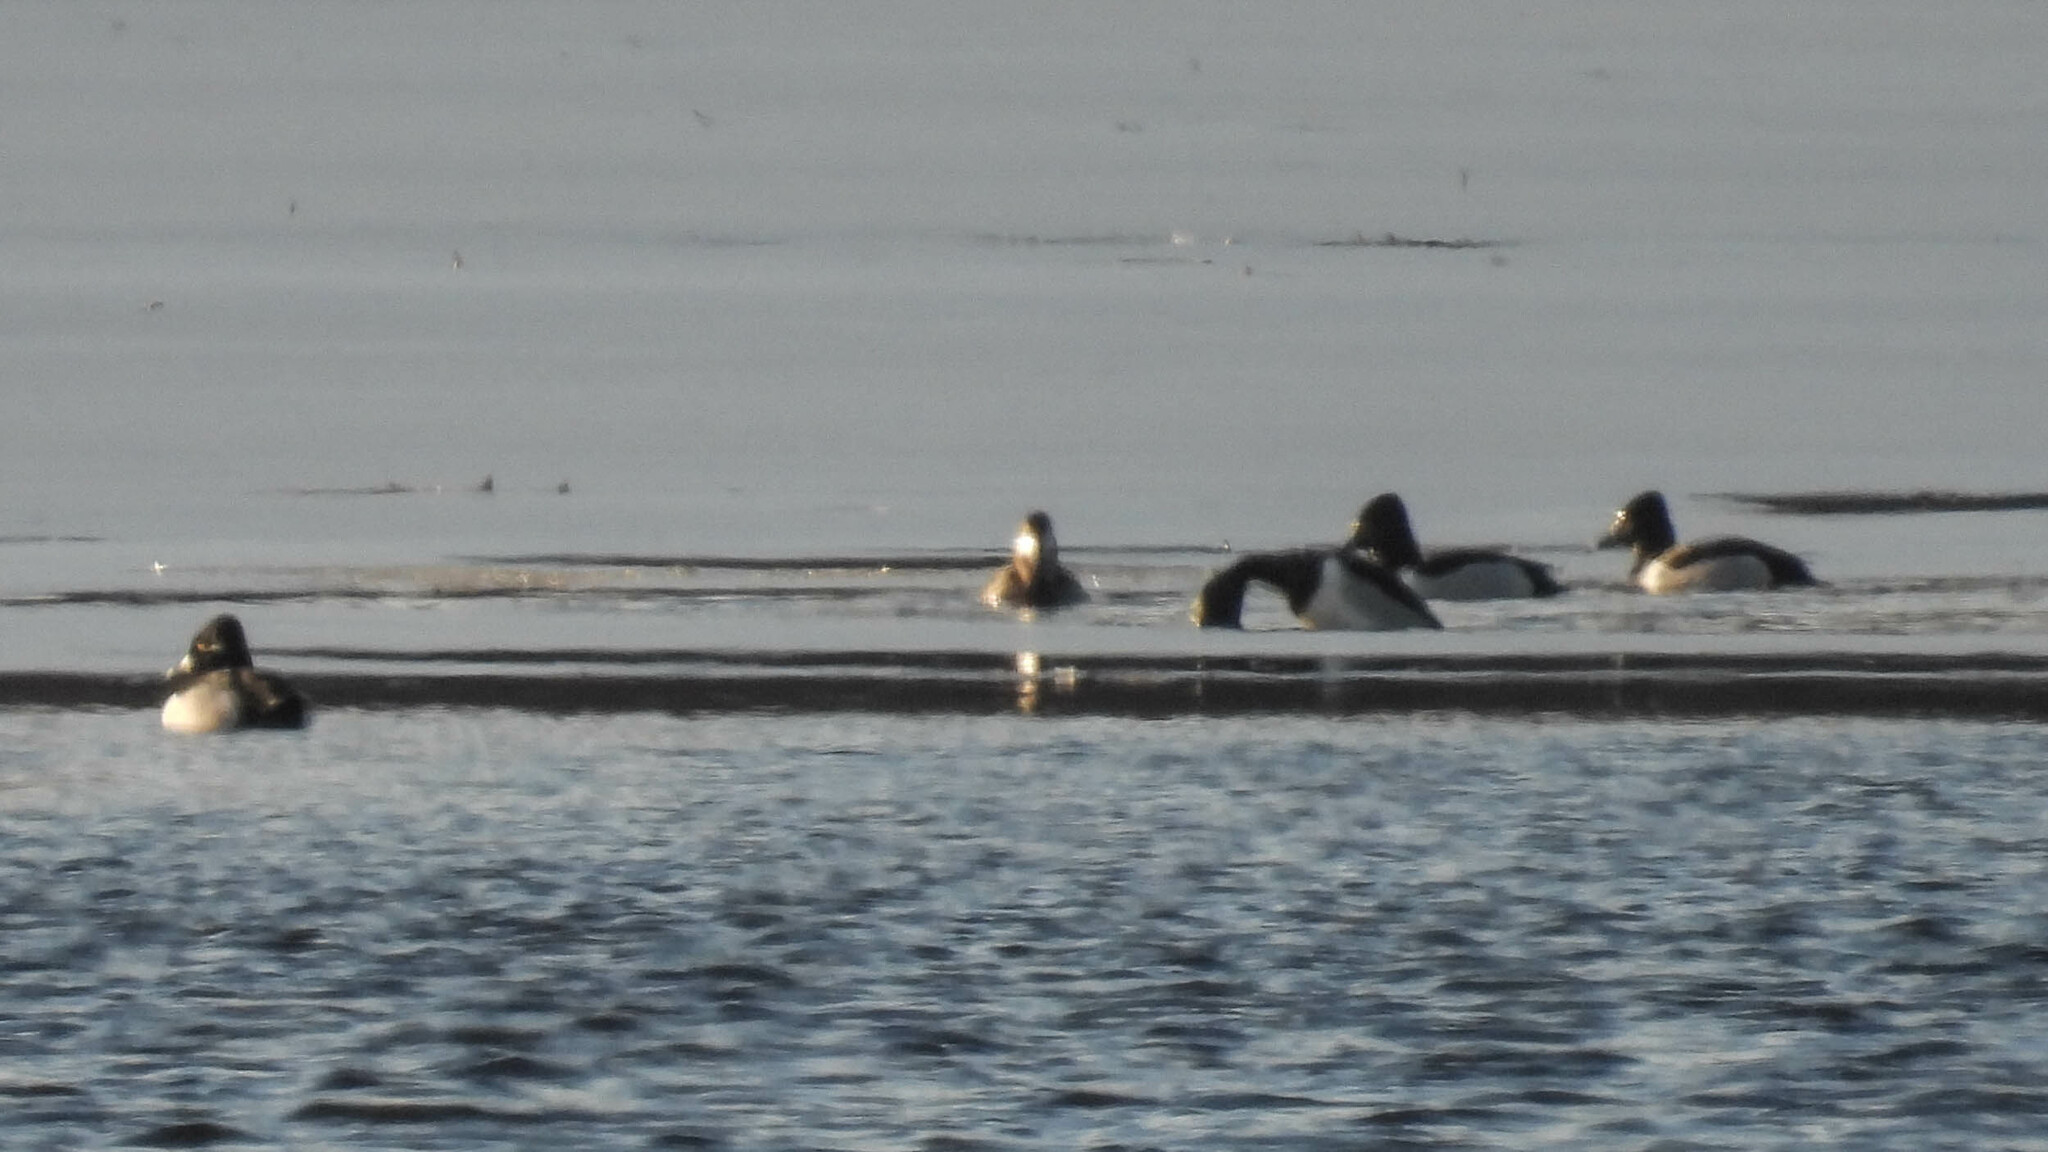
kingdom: Animalia
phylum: Chordata
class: Aves
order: Anseriformes
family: Anatidae
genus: Aythya
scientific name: Aythya collaris
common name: Ring-necked duck
